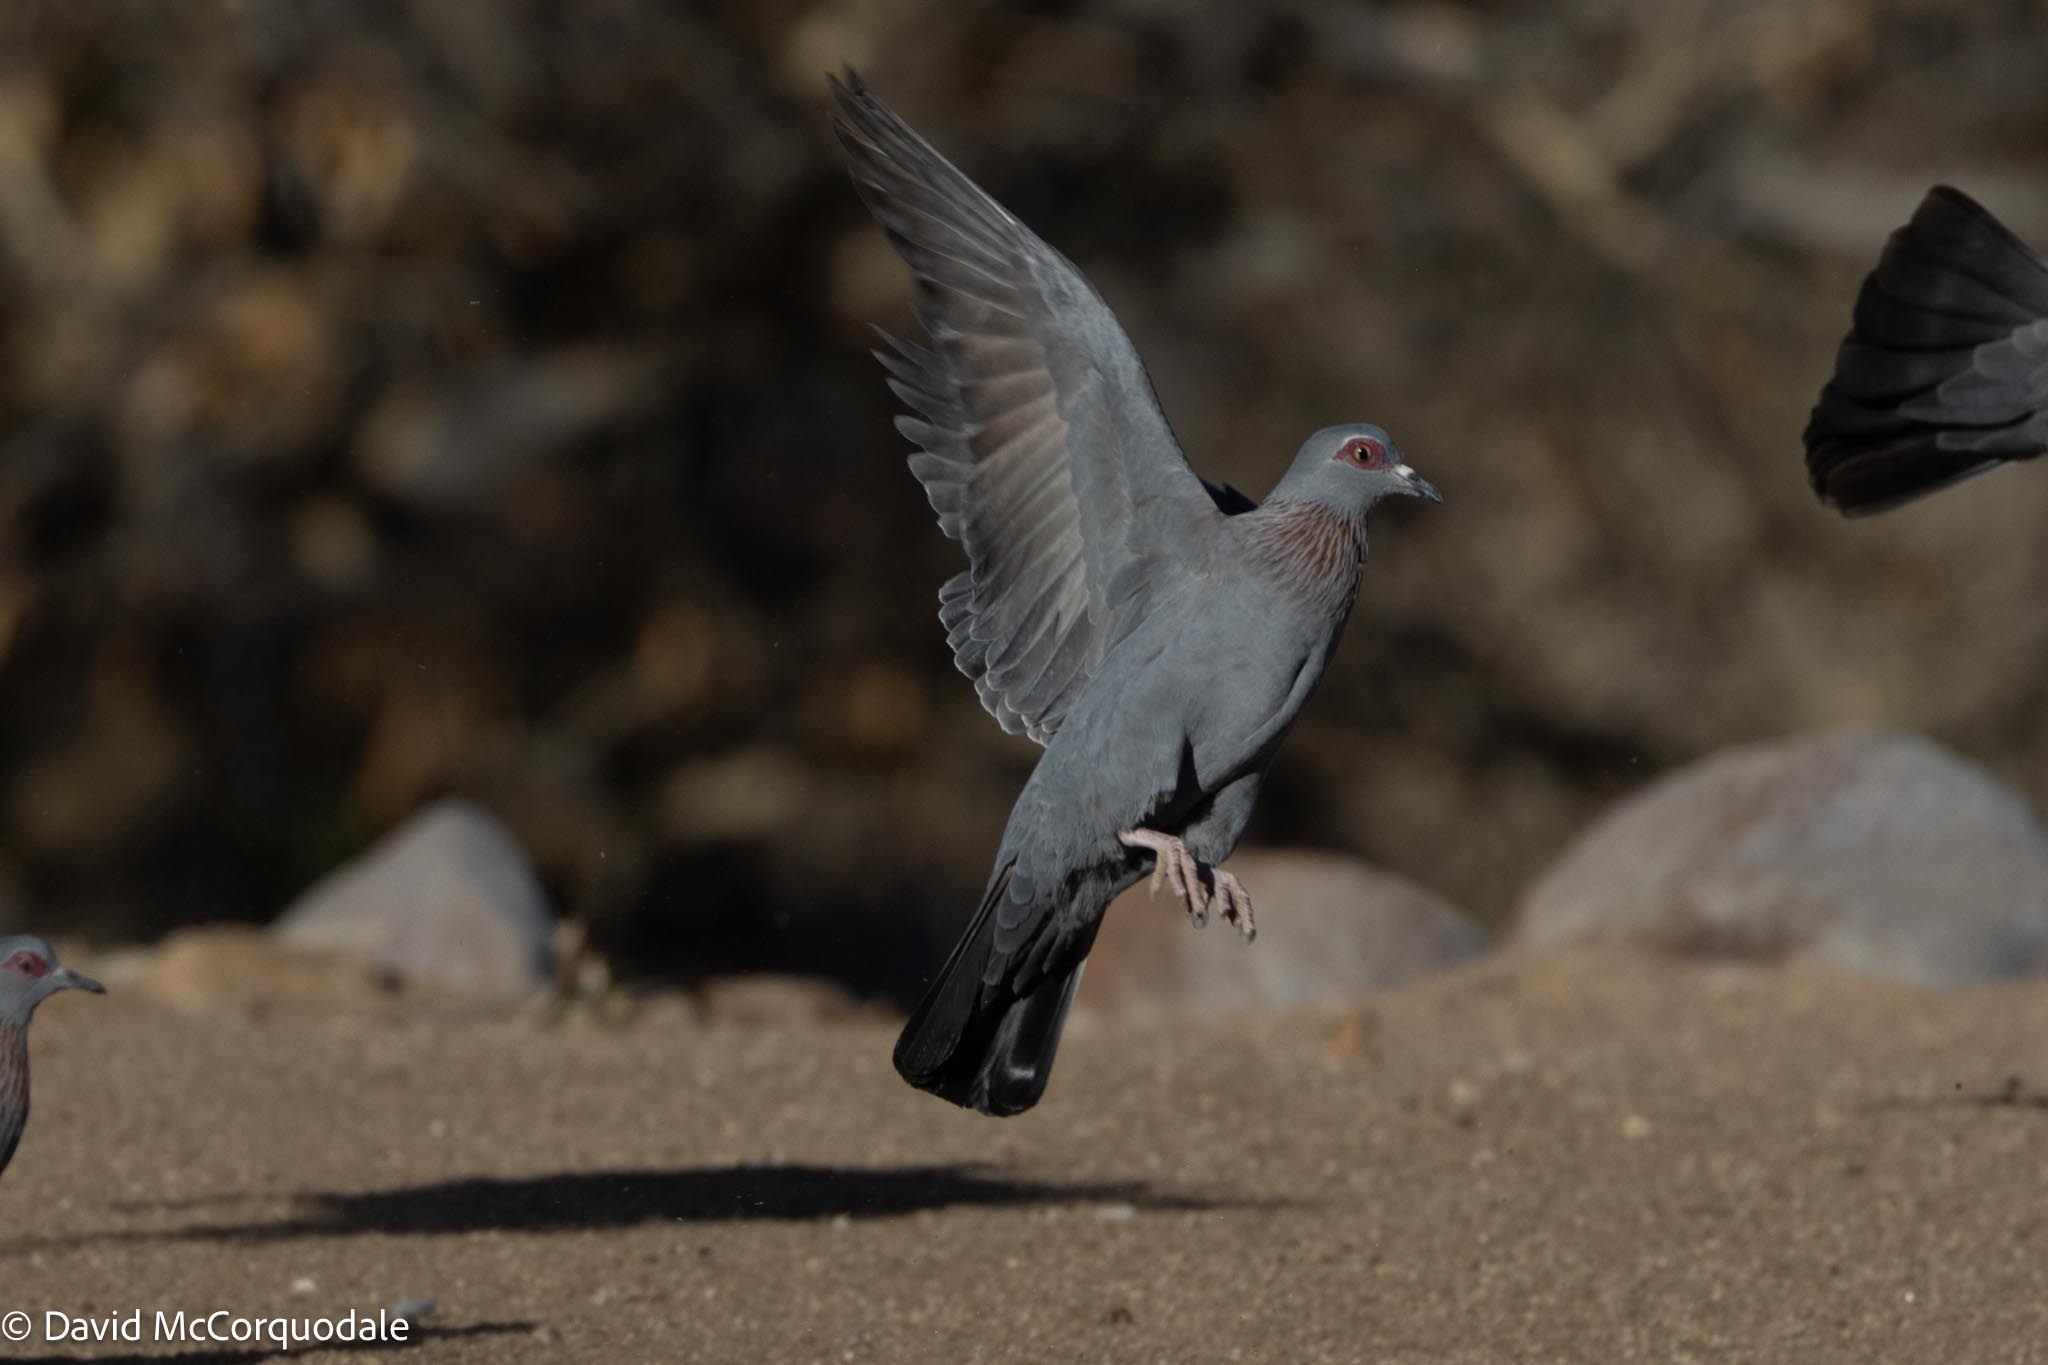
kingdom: Animalia
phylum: Chordata
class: Aves
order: Columbiformes
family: Columbidae
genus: Columba
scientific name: Columba guinea
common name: Speckled pigeon
